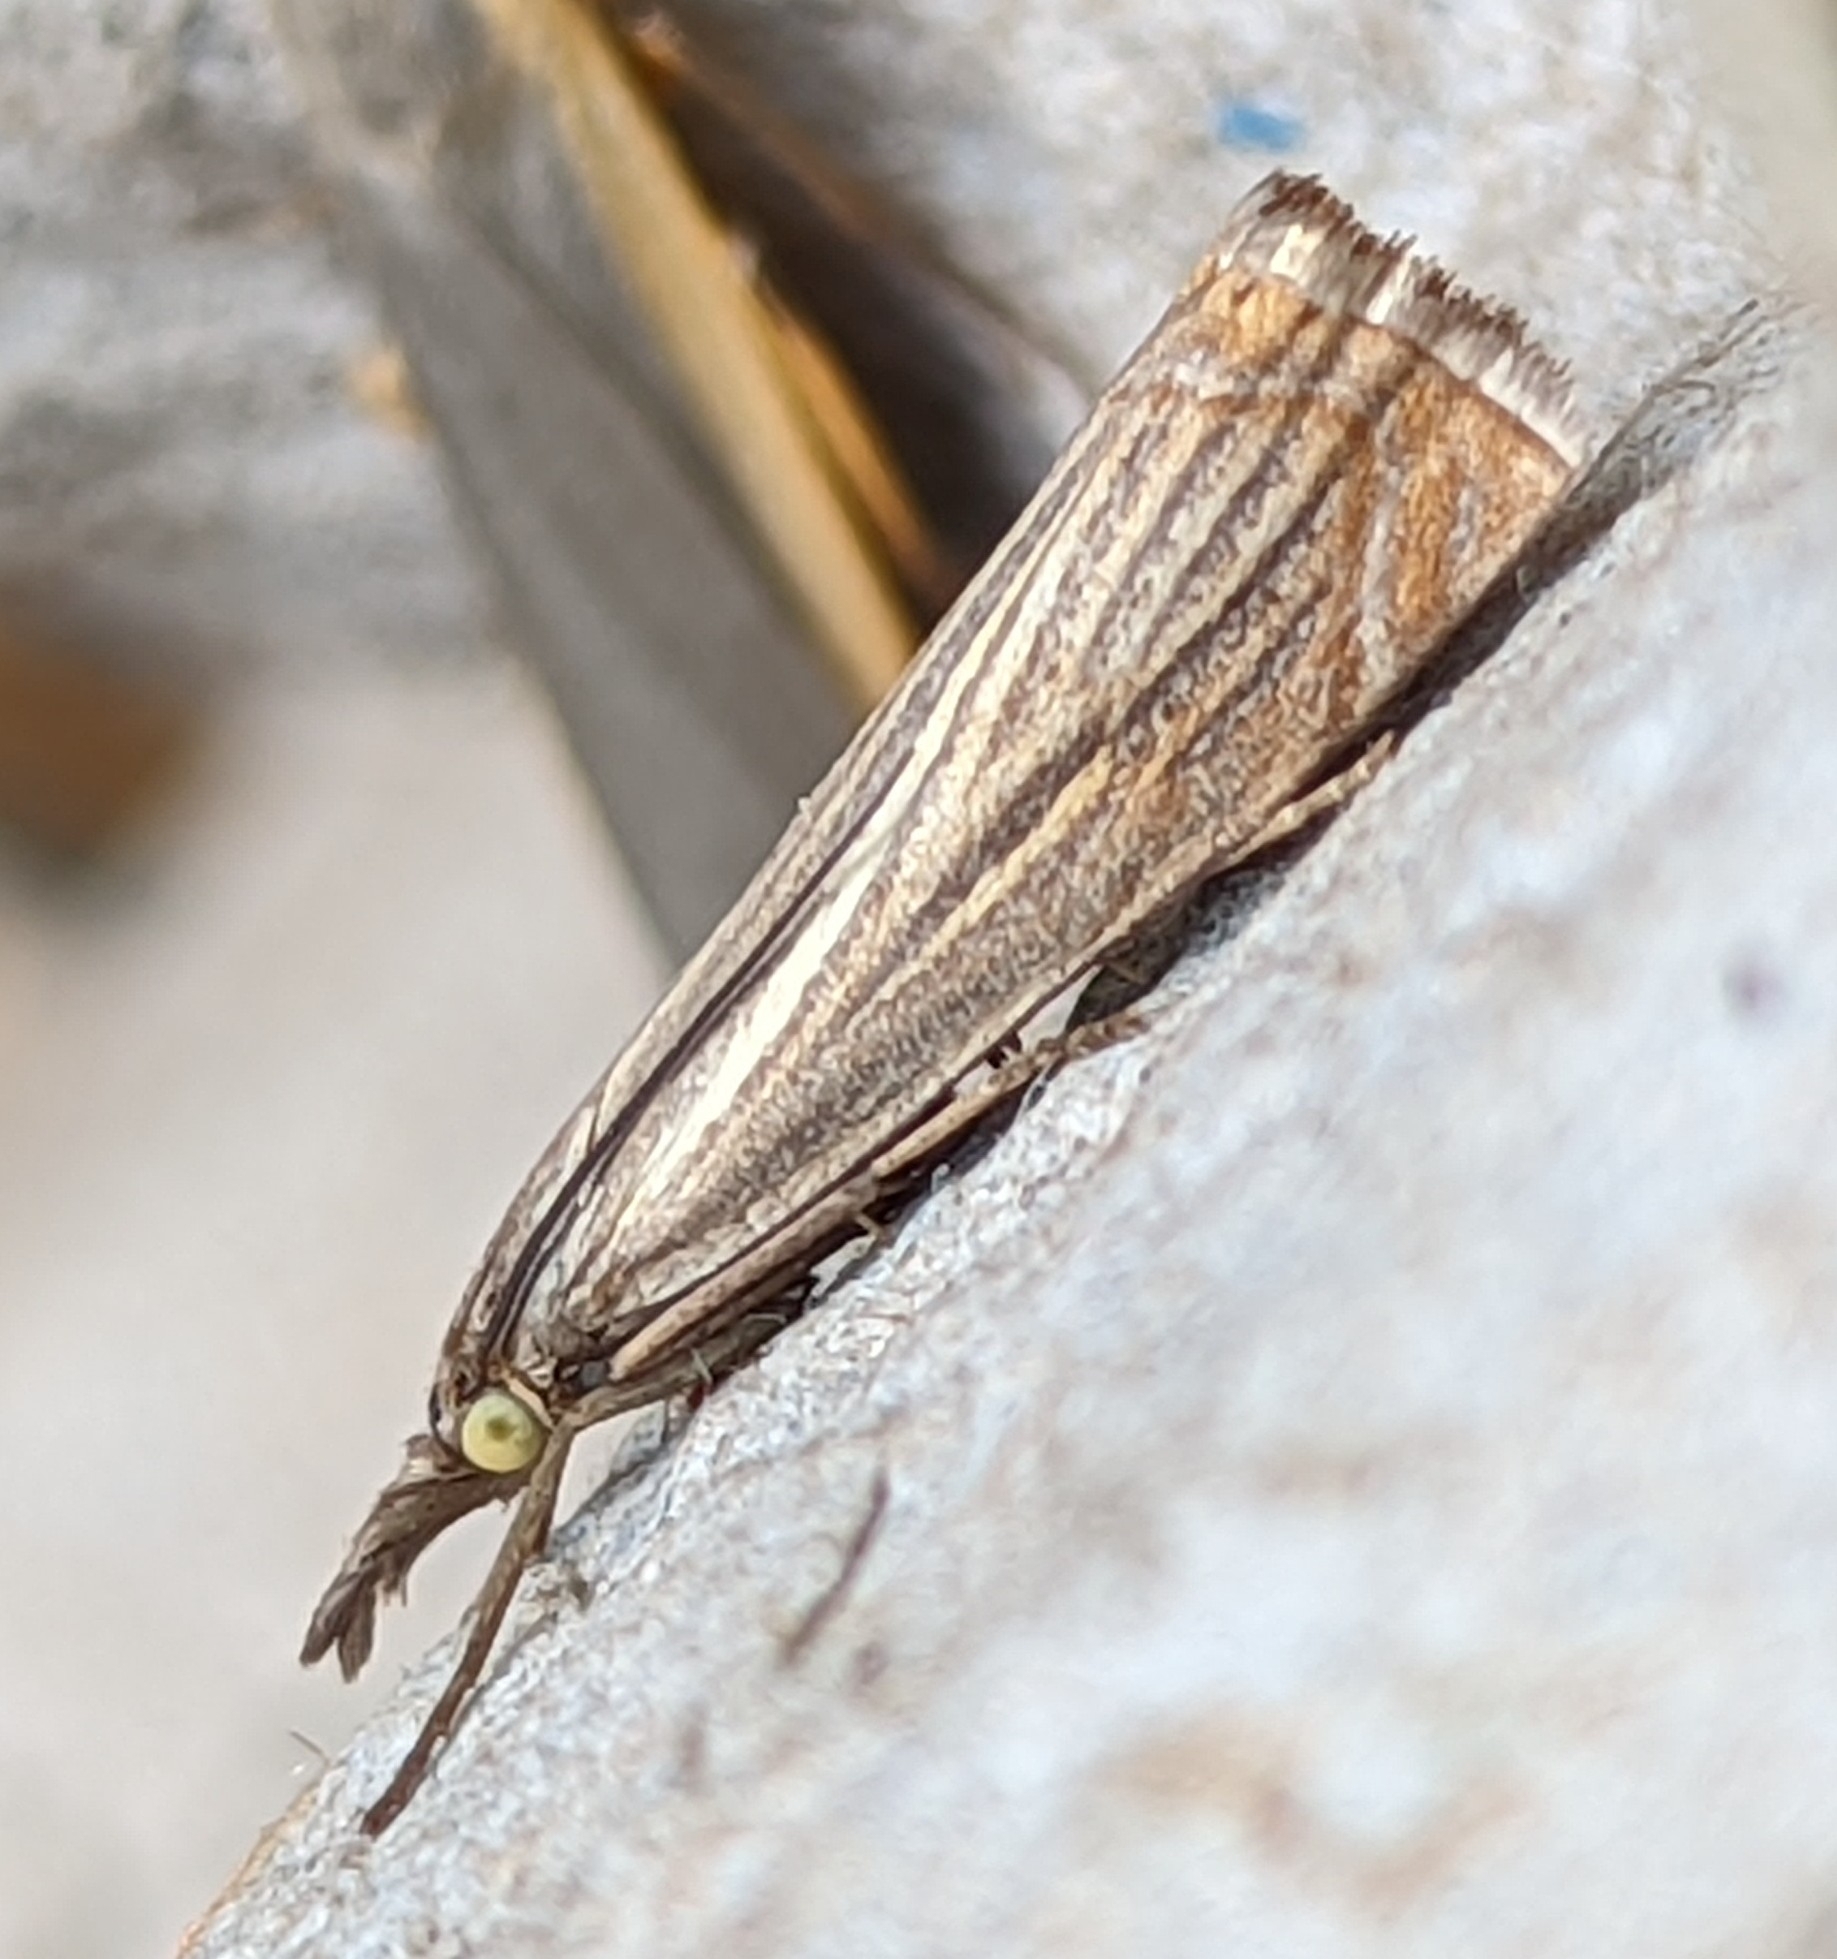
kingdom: Animalia
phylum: Arthropoda
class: Insecta
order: Lepidoptera
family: Crambidae
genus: Chrysoteuchia
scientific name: Chrysoteuchia culmella
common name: Garden grass-veneer
